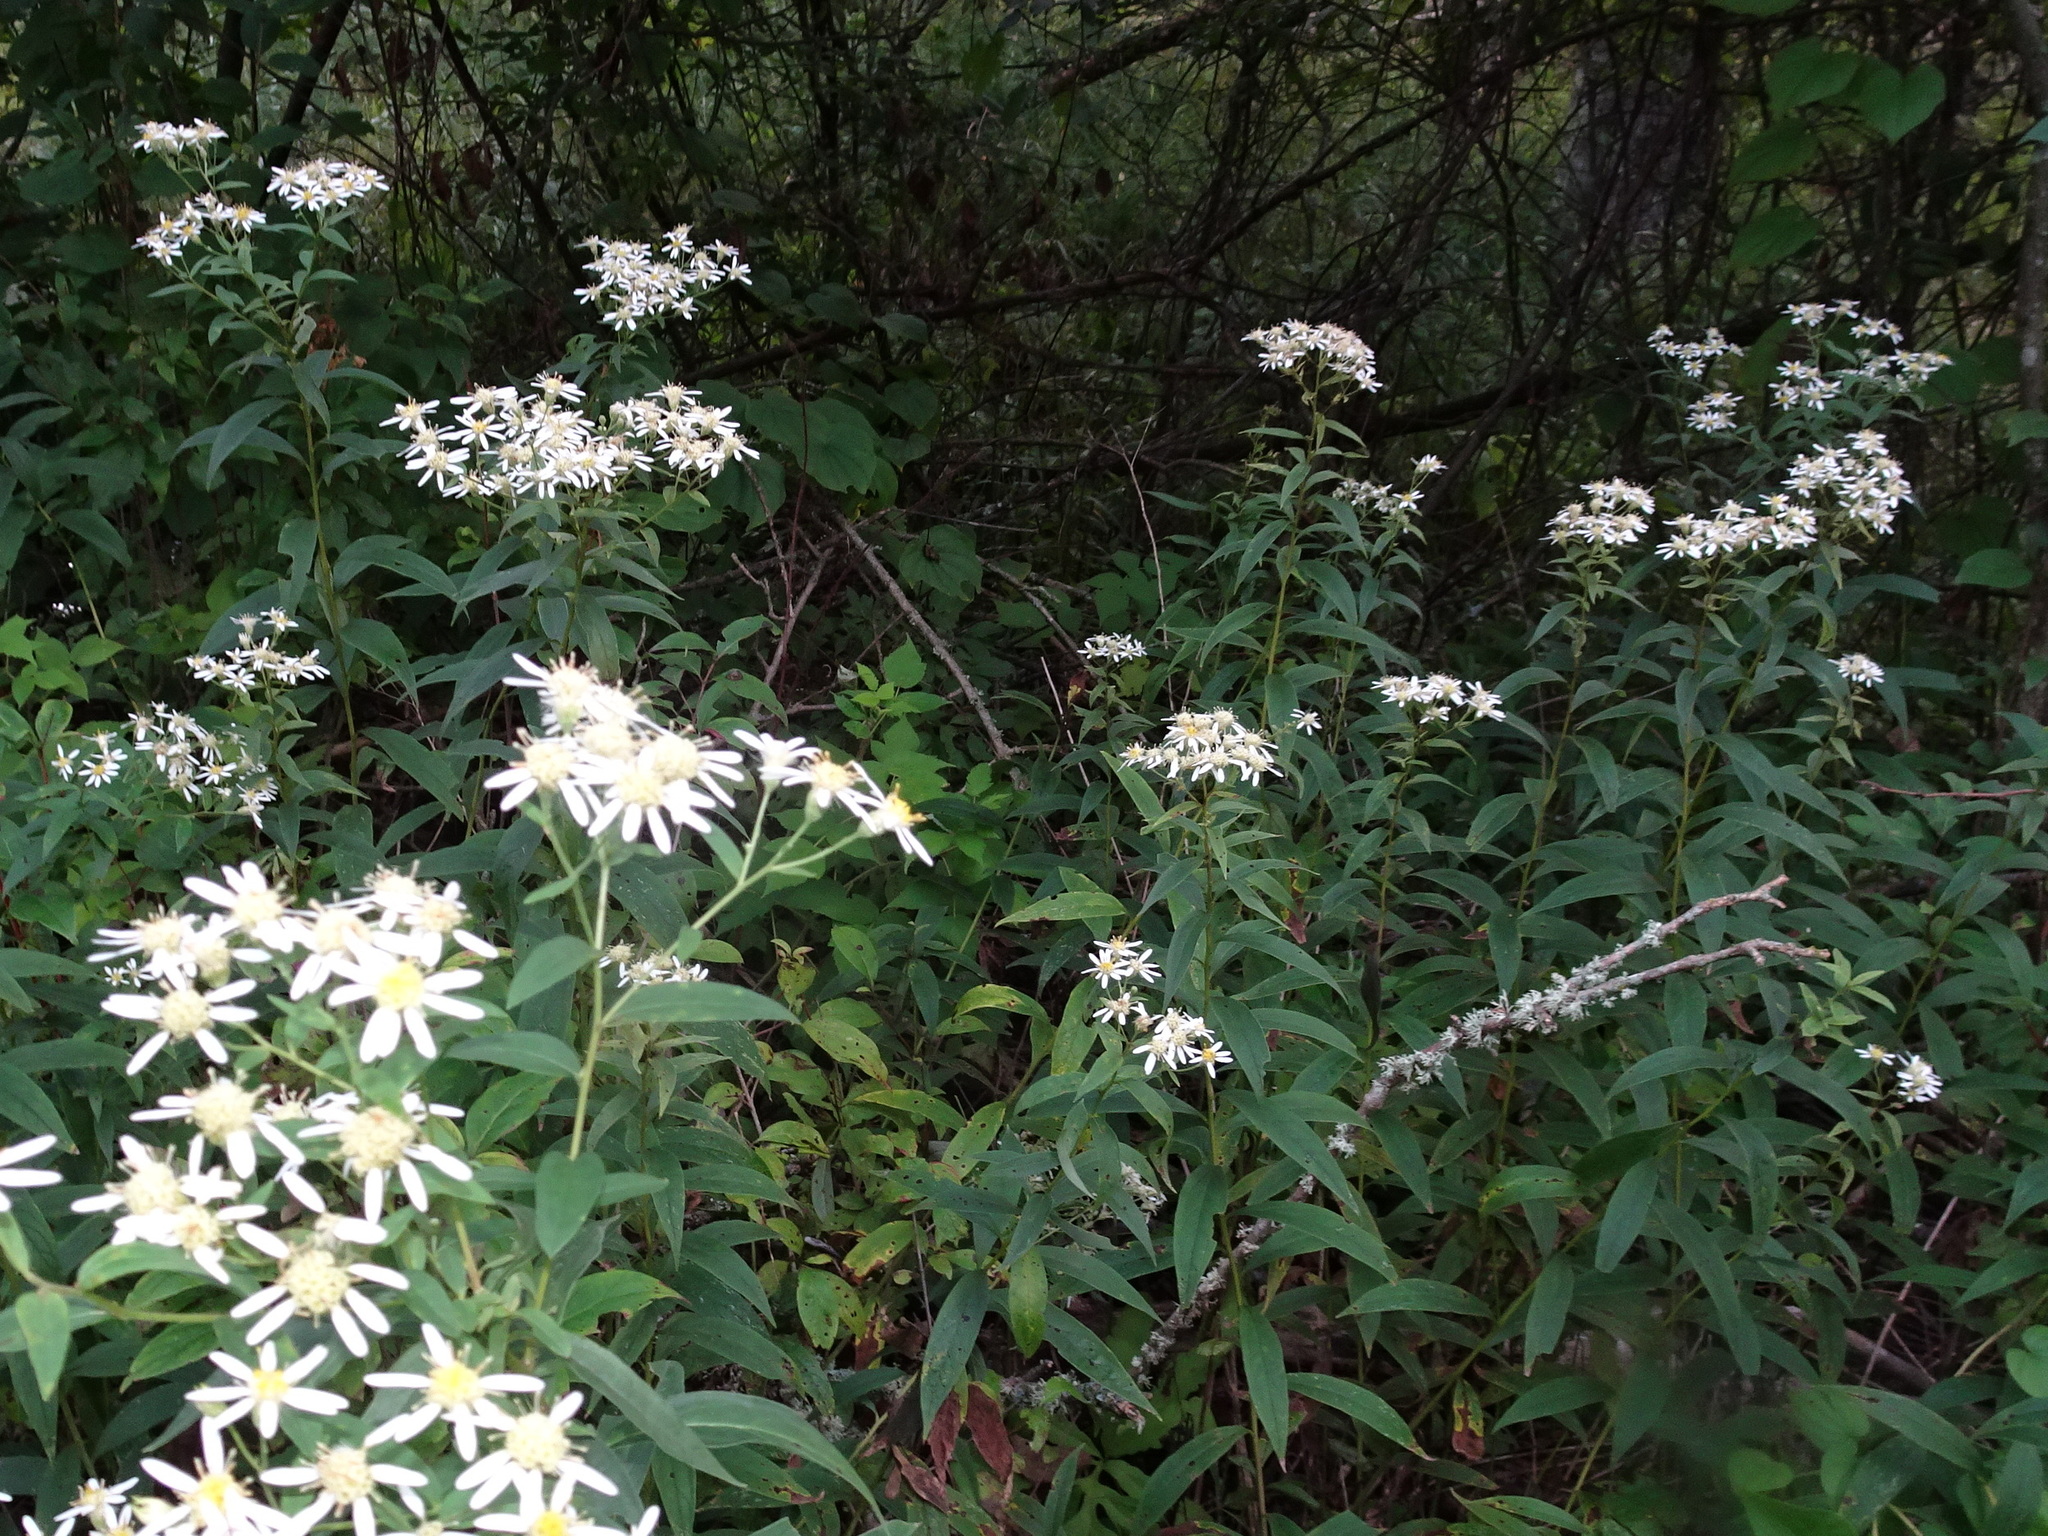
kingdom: Plantae
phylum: Tracheophyta
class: Magnoliopsida
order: Asterales
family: Asteraceae
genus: Doellingeria
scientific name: Doellingeria umbellata
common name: Flat-top white aster
